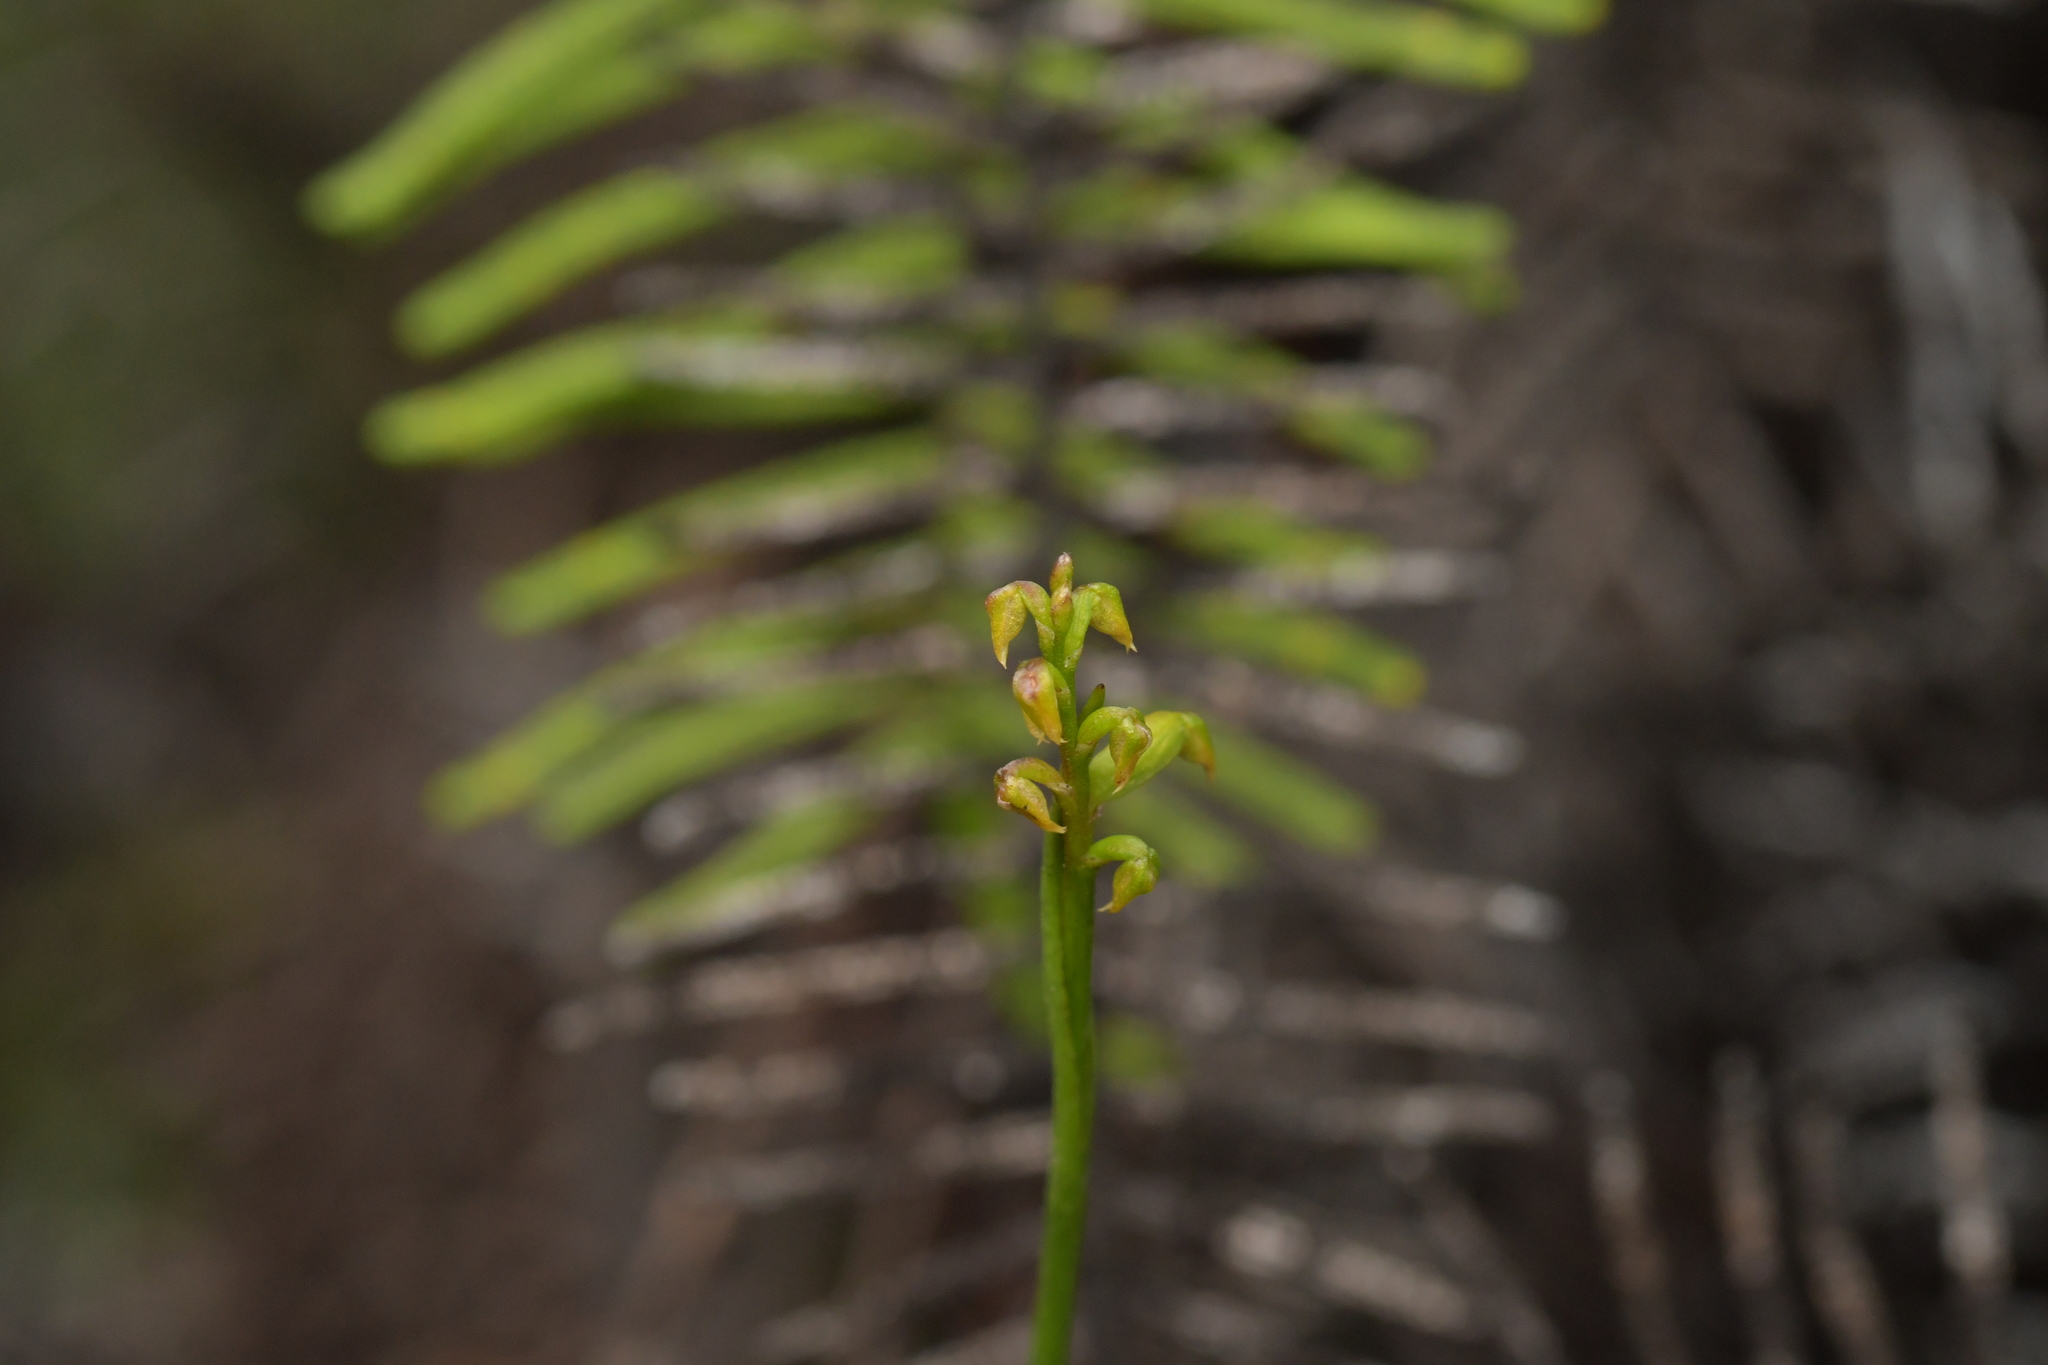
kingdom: Plantae
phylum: Tracheophyta
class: Liliopsida
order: Asparagales
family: Orchidaceae
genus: Genoplesium
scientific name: Genoplesium pumilum
